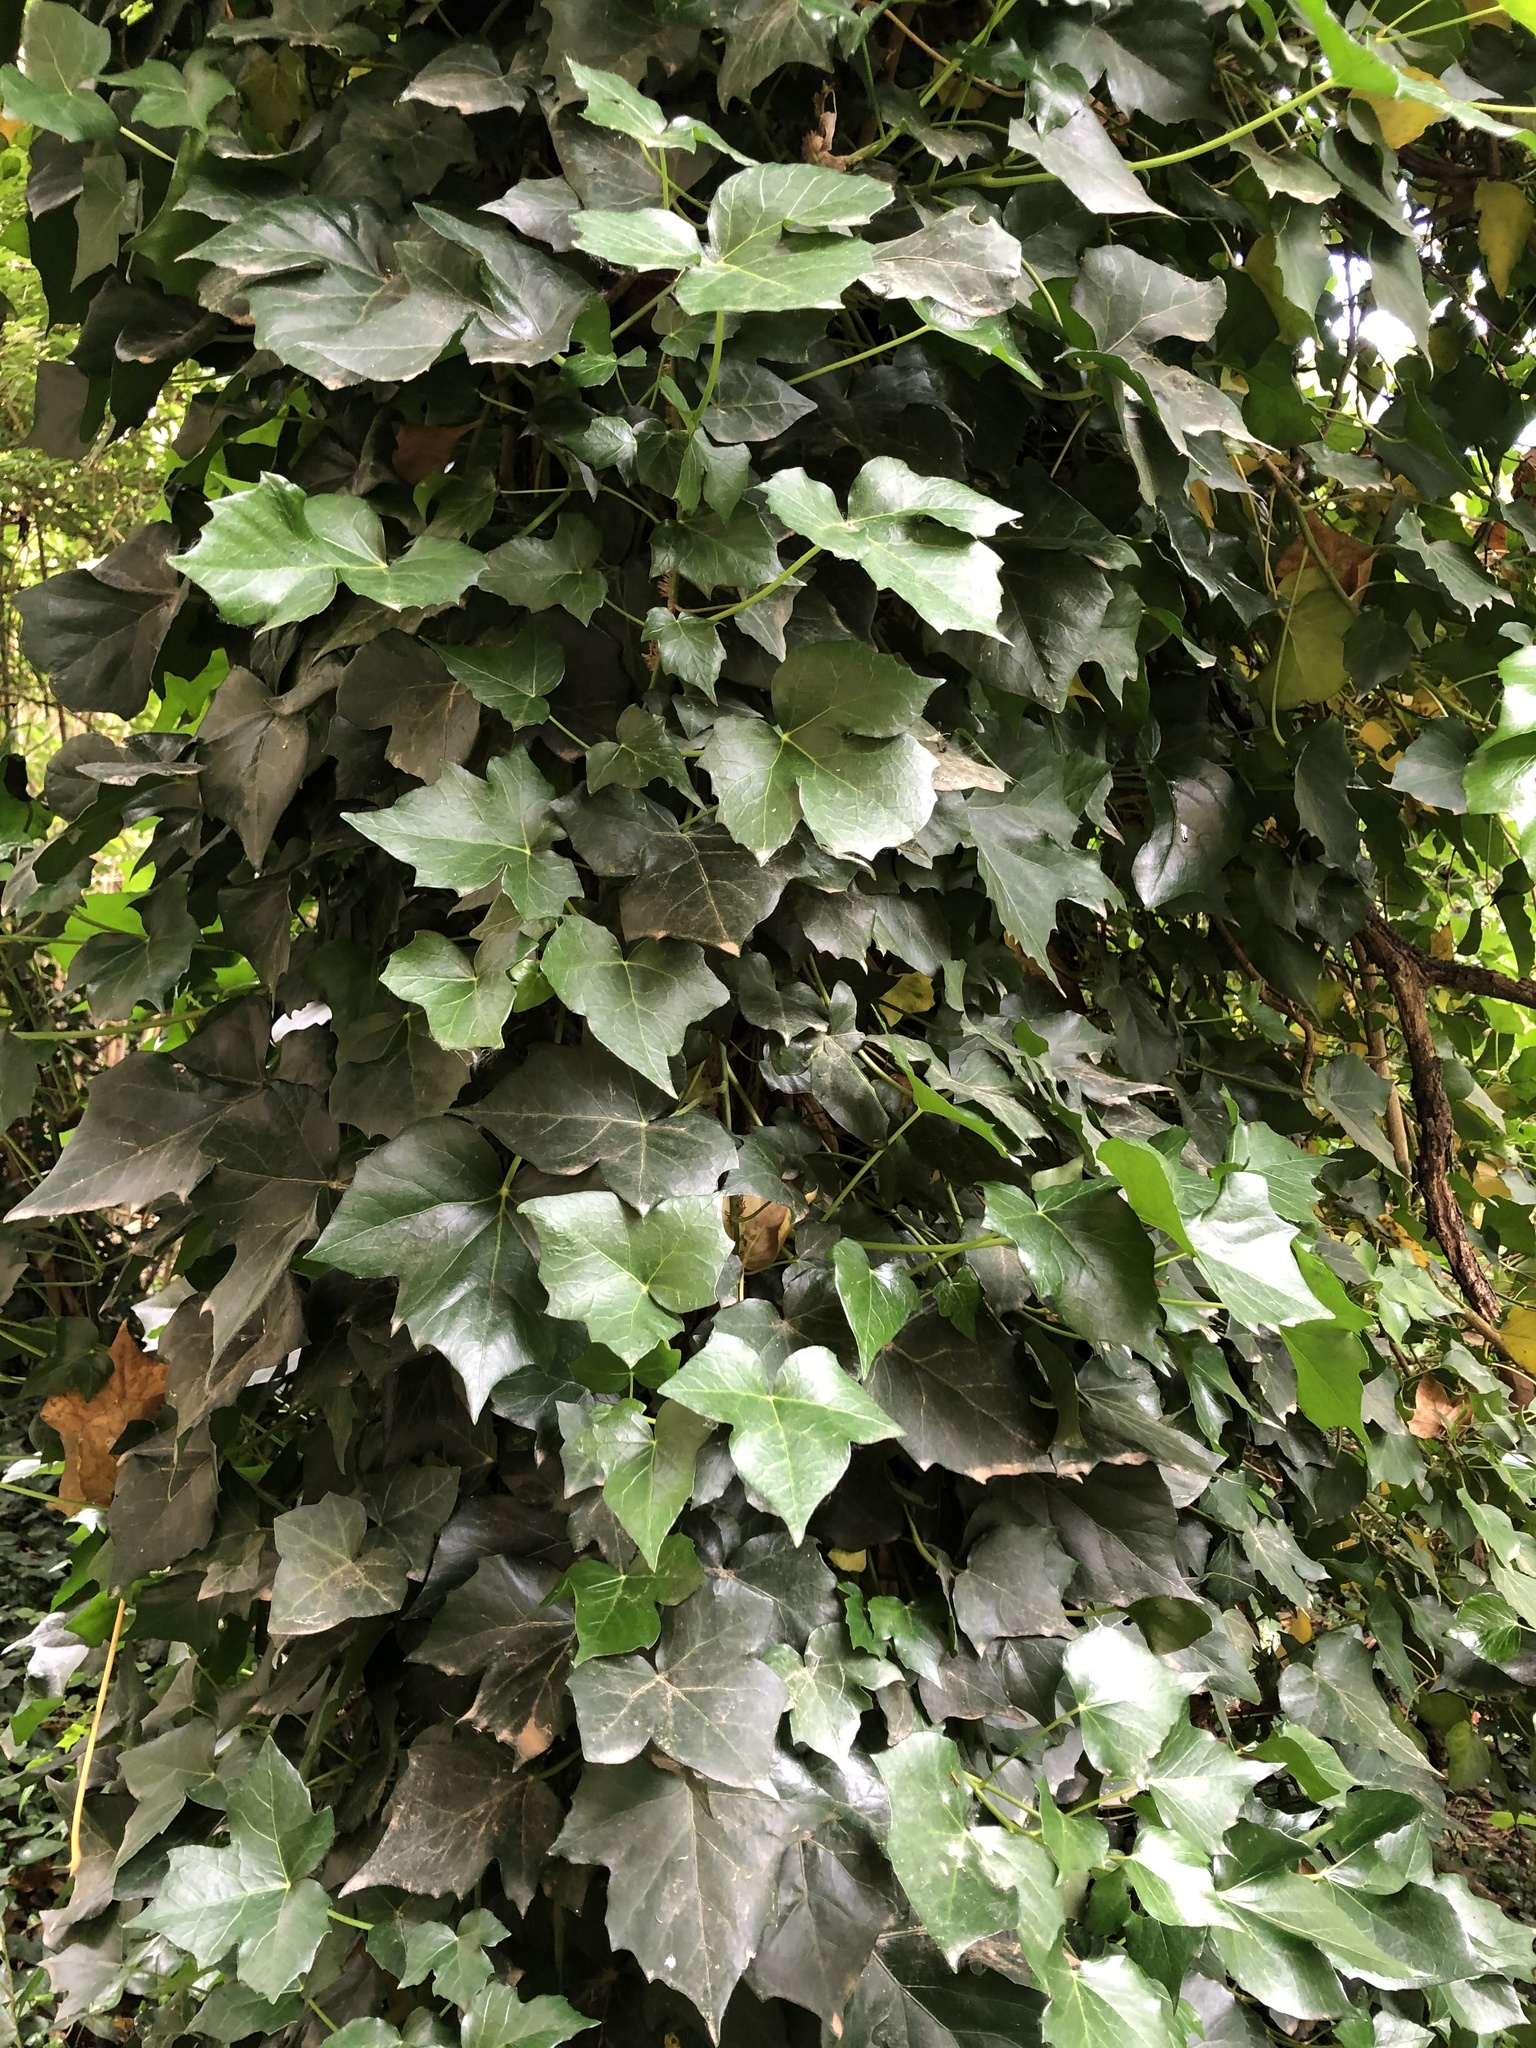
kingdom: Plantae
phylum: Tracheophyta
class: Magnoliopsida
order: Apiales
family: Araliaceae
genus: Hedera
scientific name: Hedera helix
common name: Ivy
